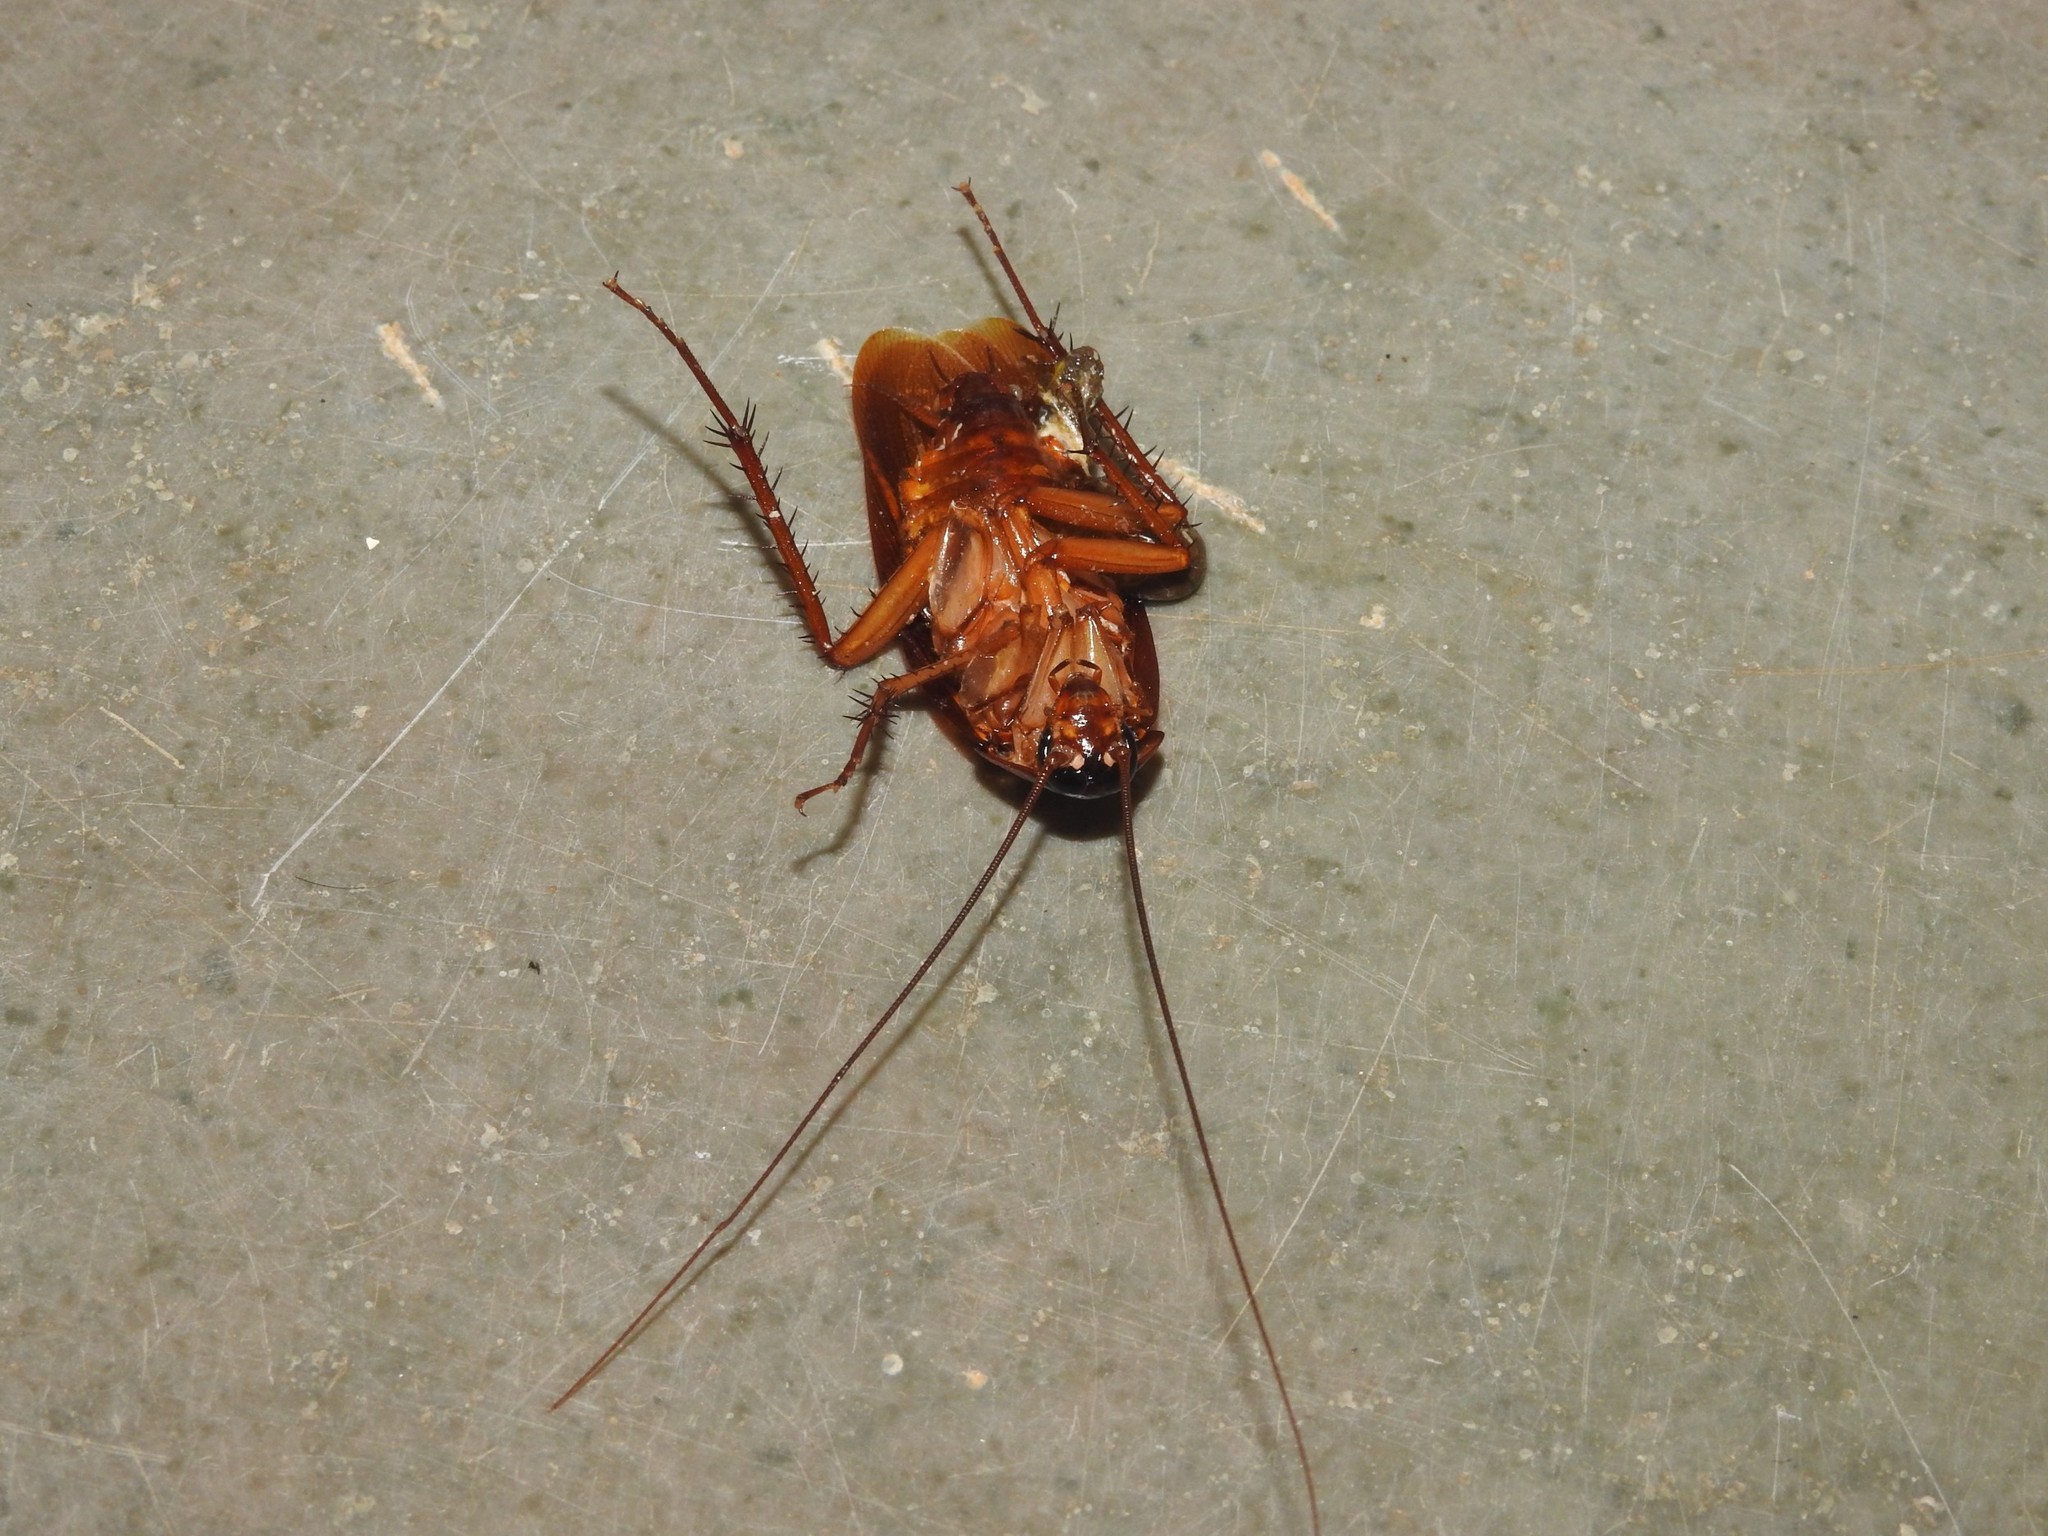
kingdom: Animalia
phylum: Arthropoda
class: Insecta
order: Blattodea
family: Blattidae
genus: Periplaneta
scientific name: Periplaneta americana
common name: American cockroach
